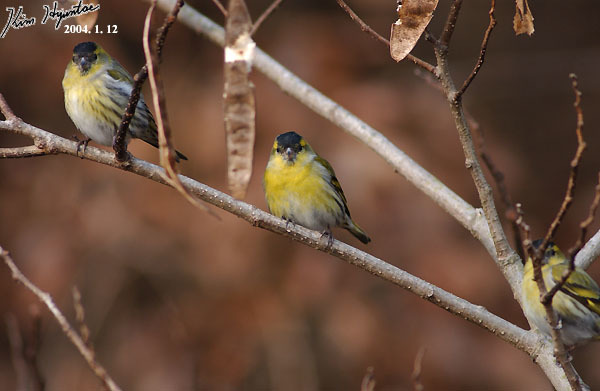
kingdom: Animalia
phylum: Chordata
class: Aves
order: Passeriformes
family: Fringillidae
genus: Spinus
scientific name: Spinus spinus
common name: Eurasian siskin
